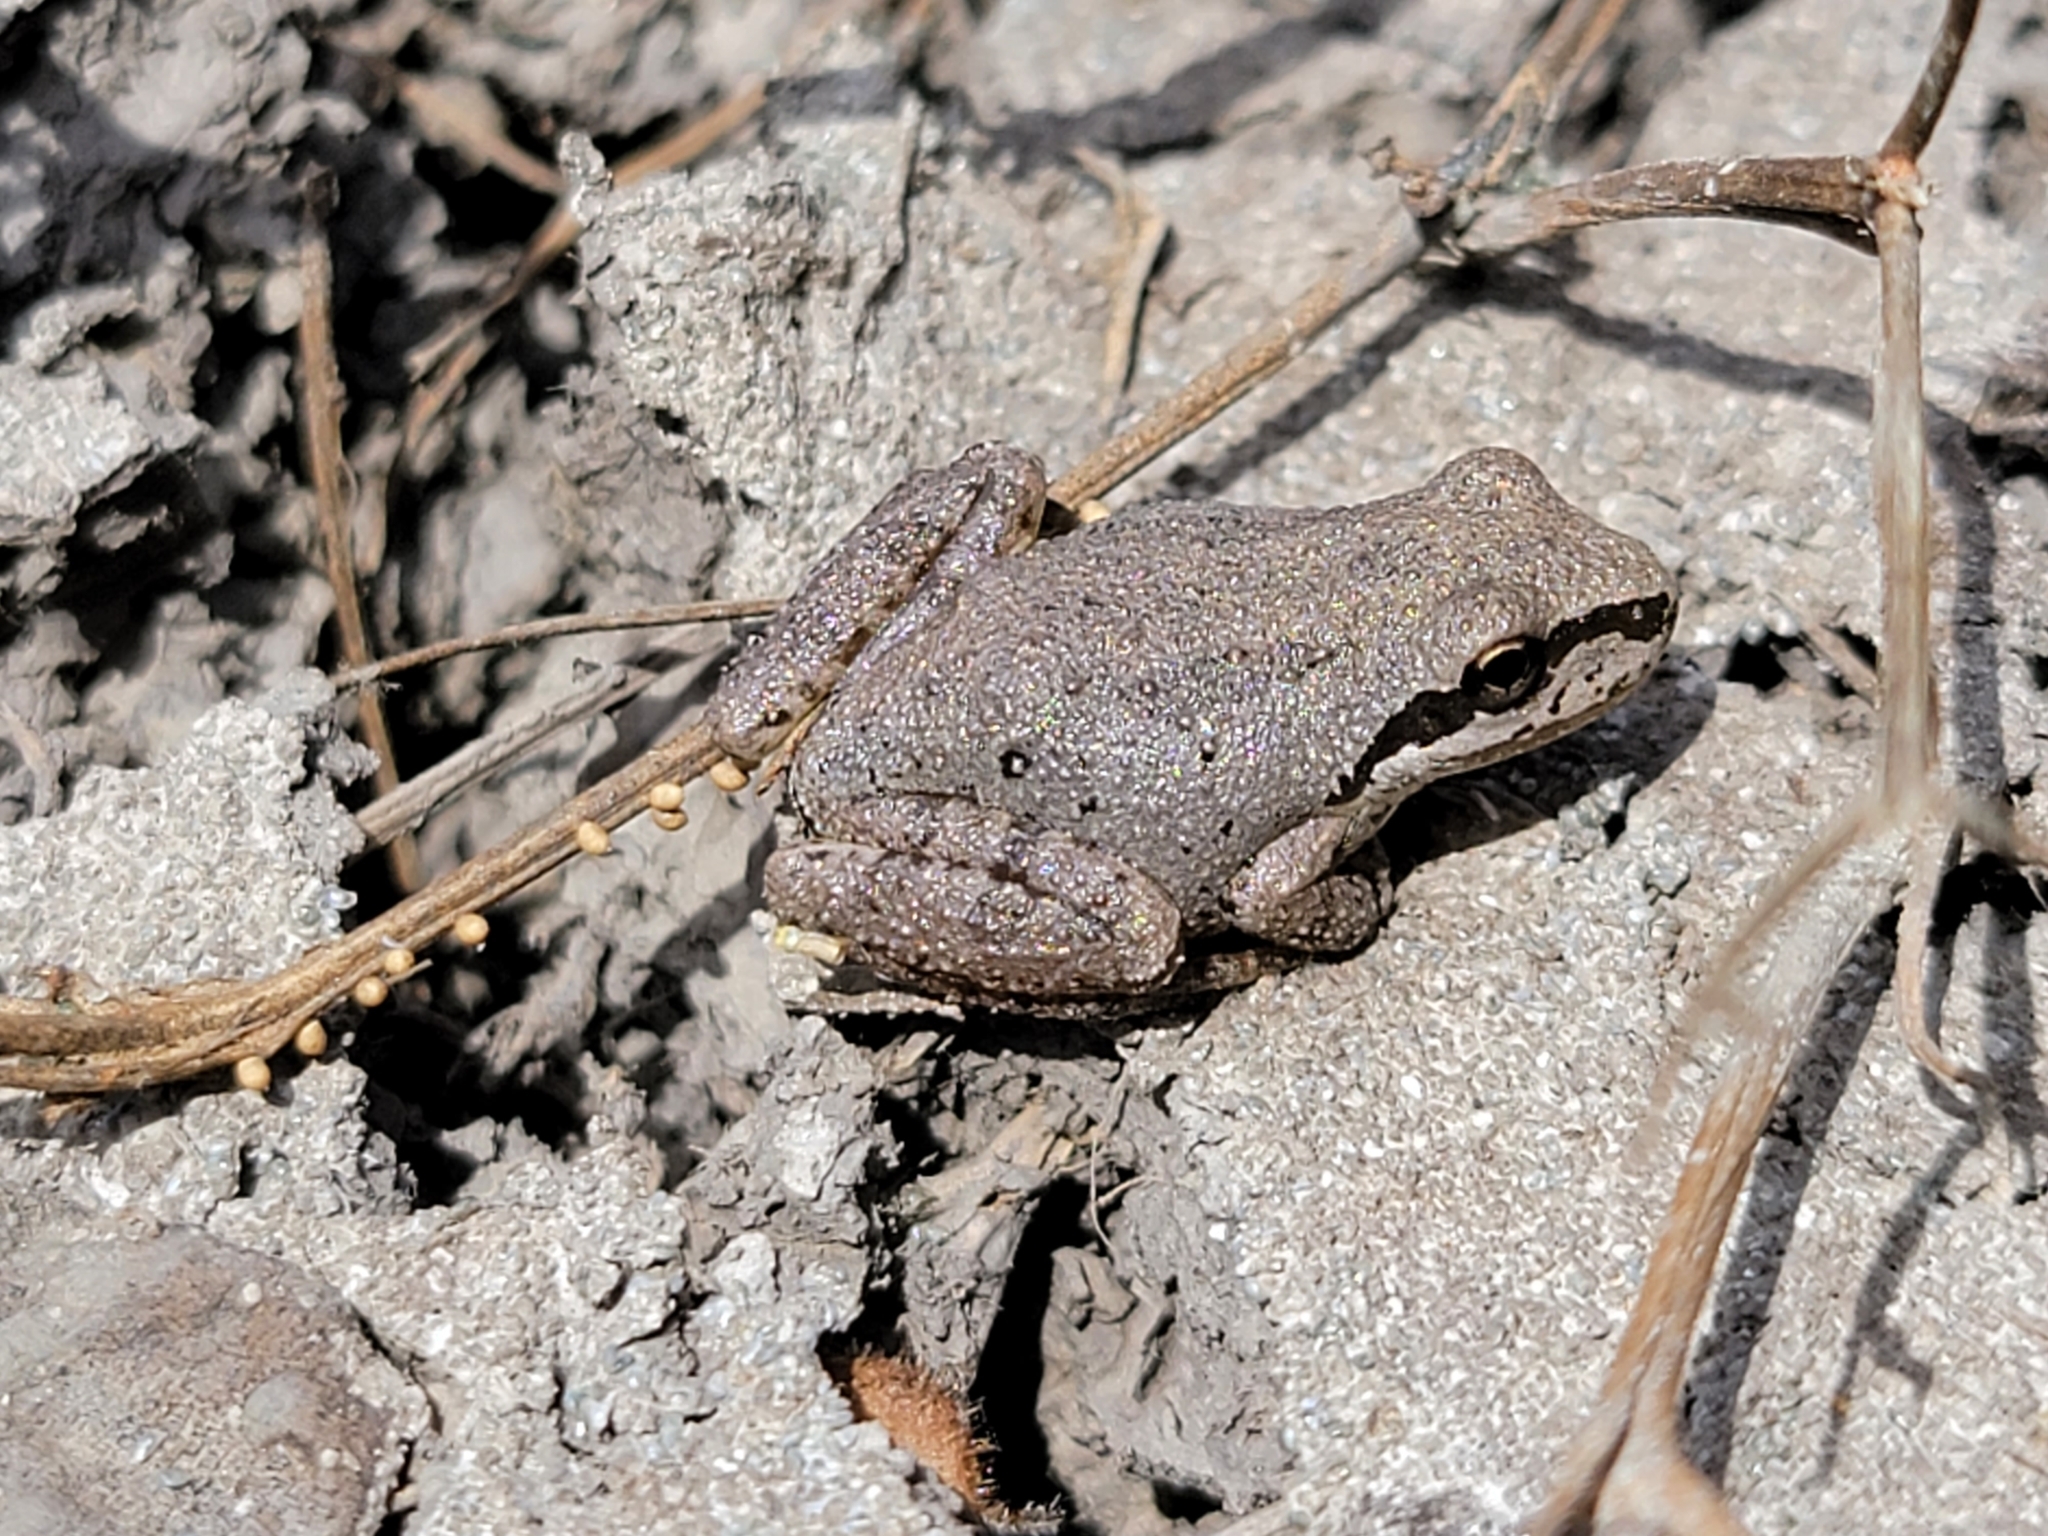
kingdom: Animalia
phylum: Chordata
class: Amphibia
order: Anura
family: Hylidae
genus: Pseudacris
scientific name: Pseudacris regilla
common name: Pacific chorus frog
